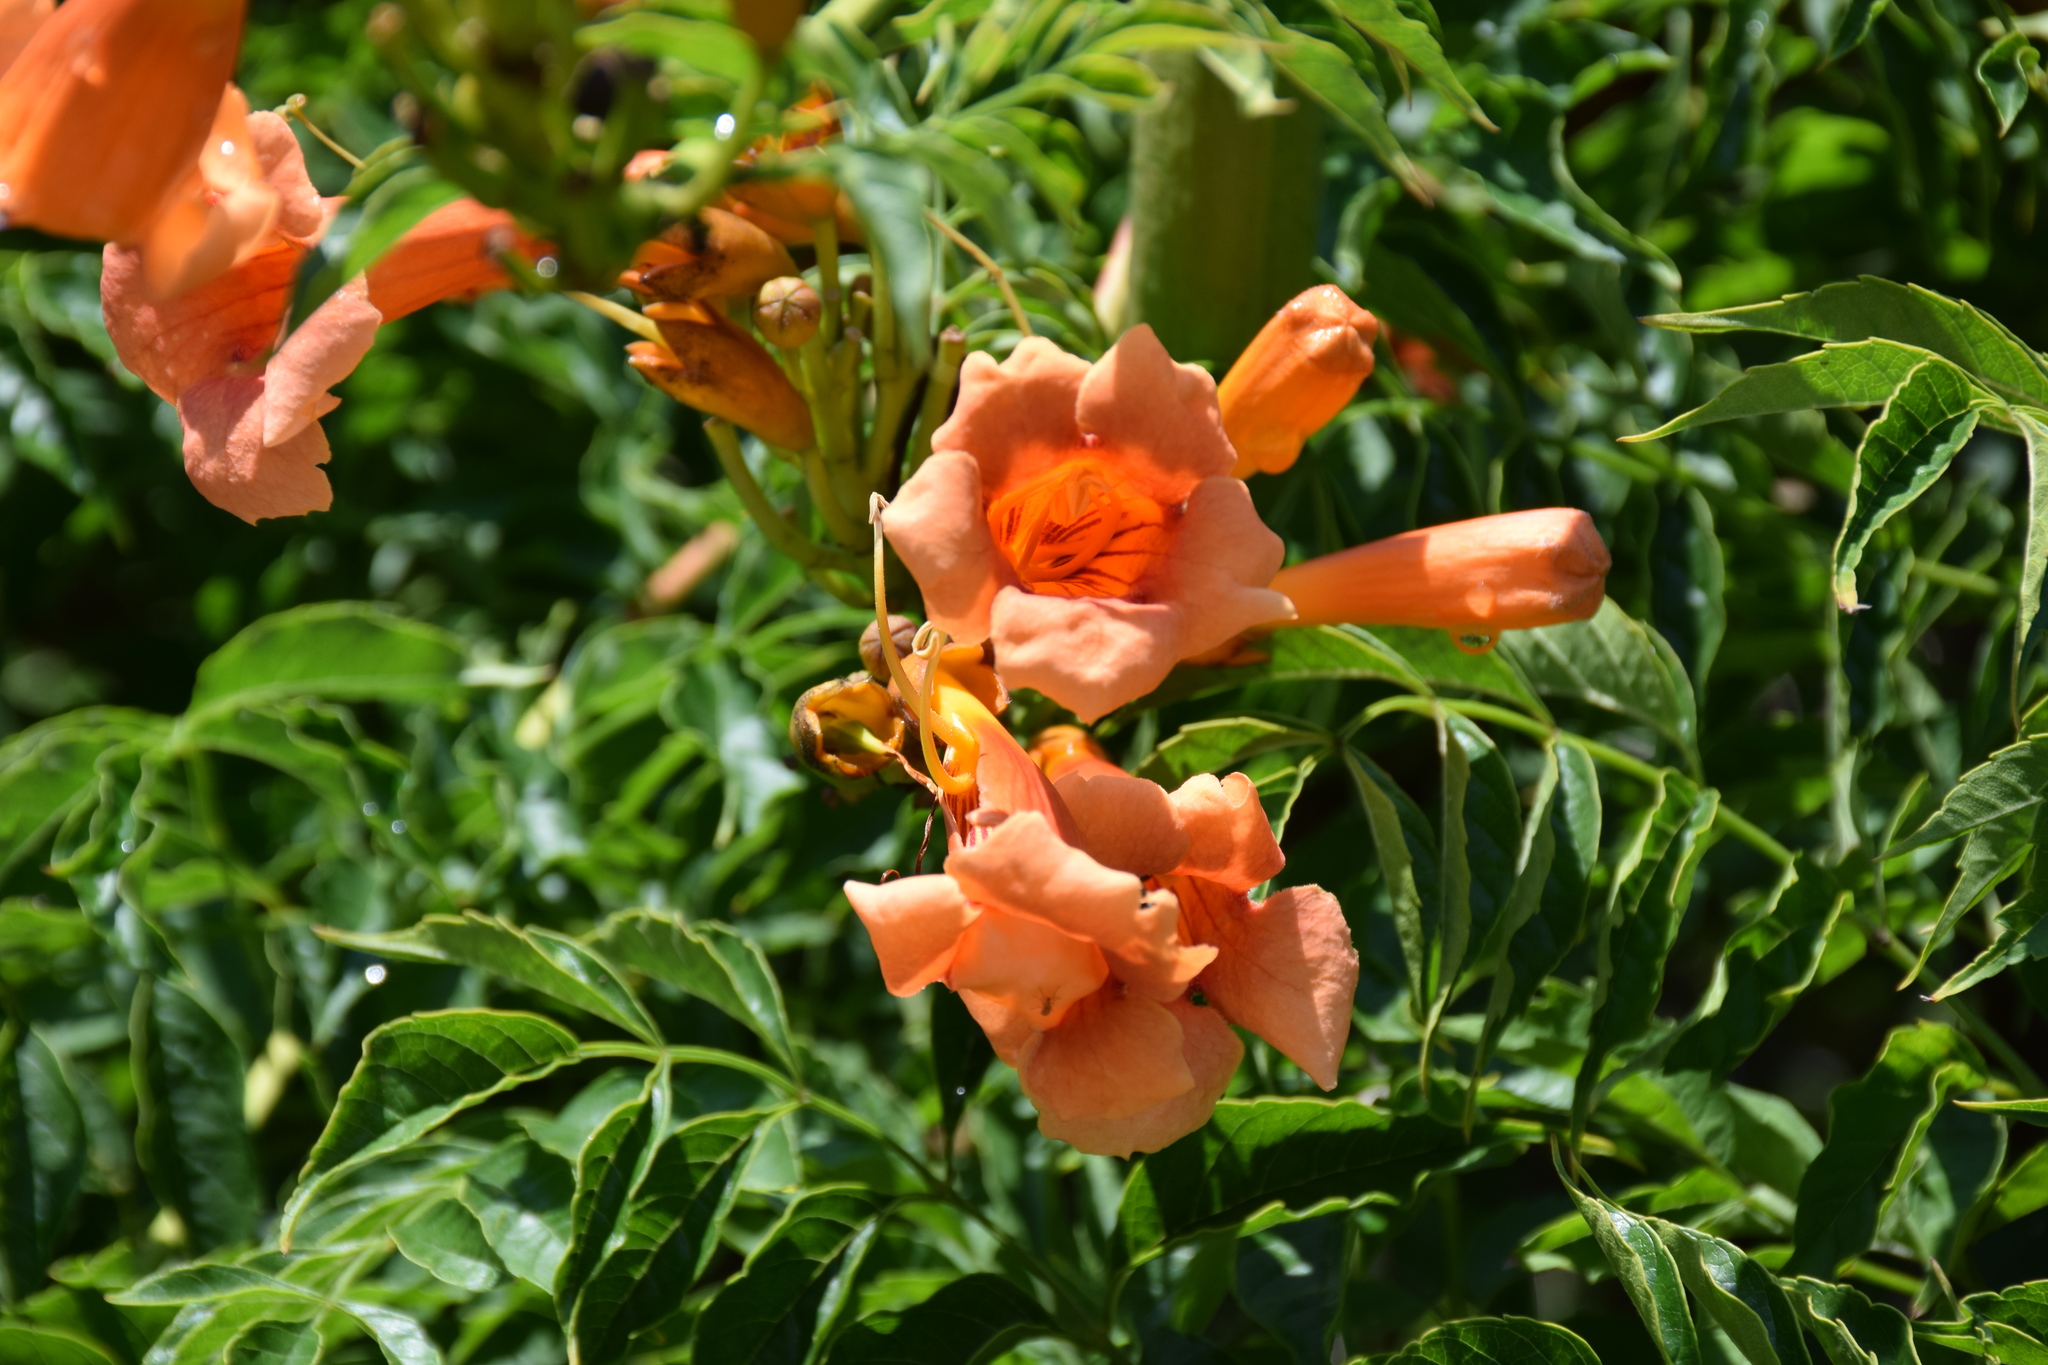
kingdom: Plantae
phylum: Tracheophyta
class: Magnoliopsida
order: Lamiales
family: Bignoniaceae
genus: Campsis
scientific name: Campsis radicans
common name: Trumpet-creeper
